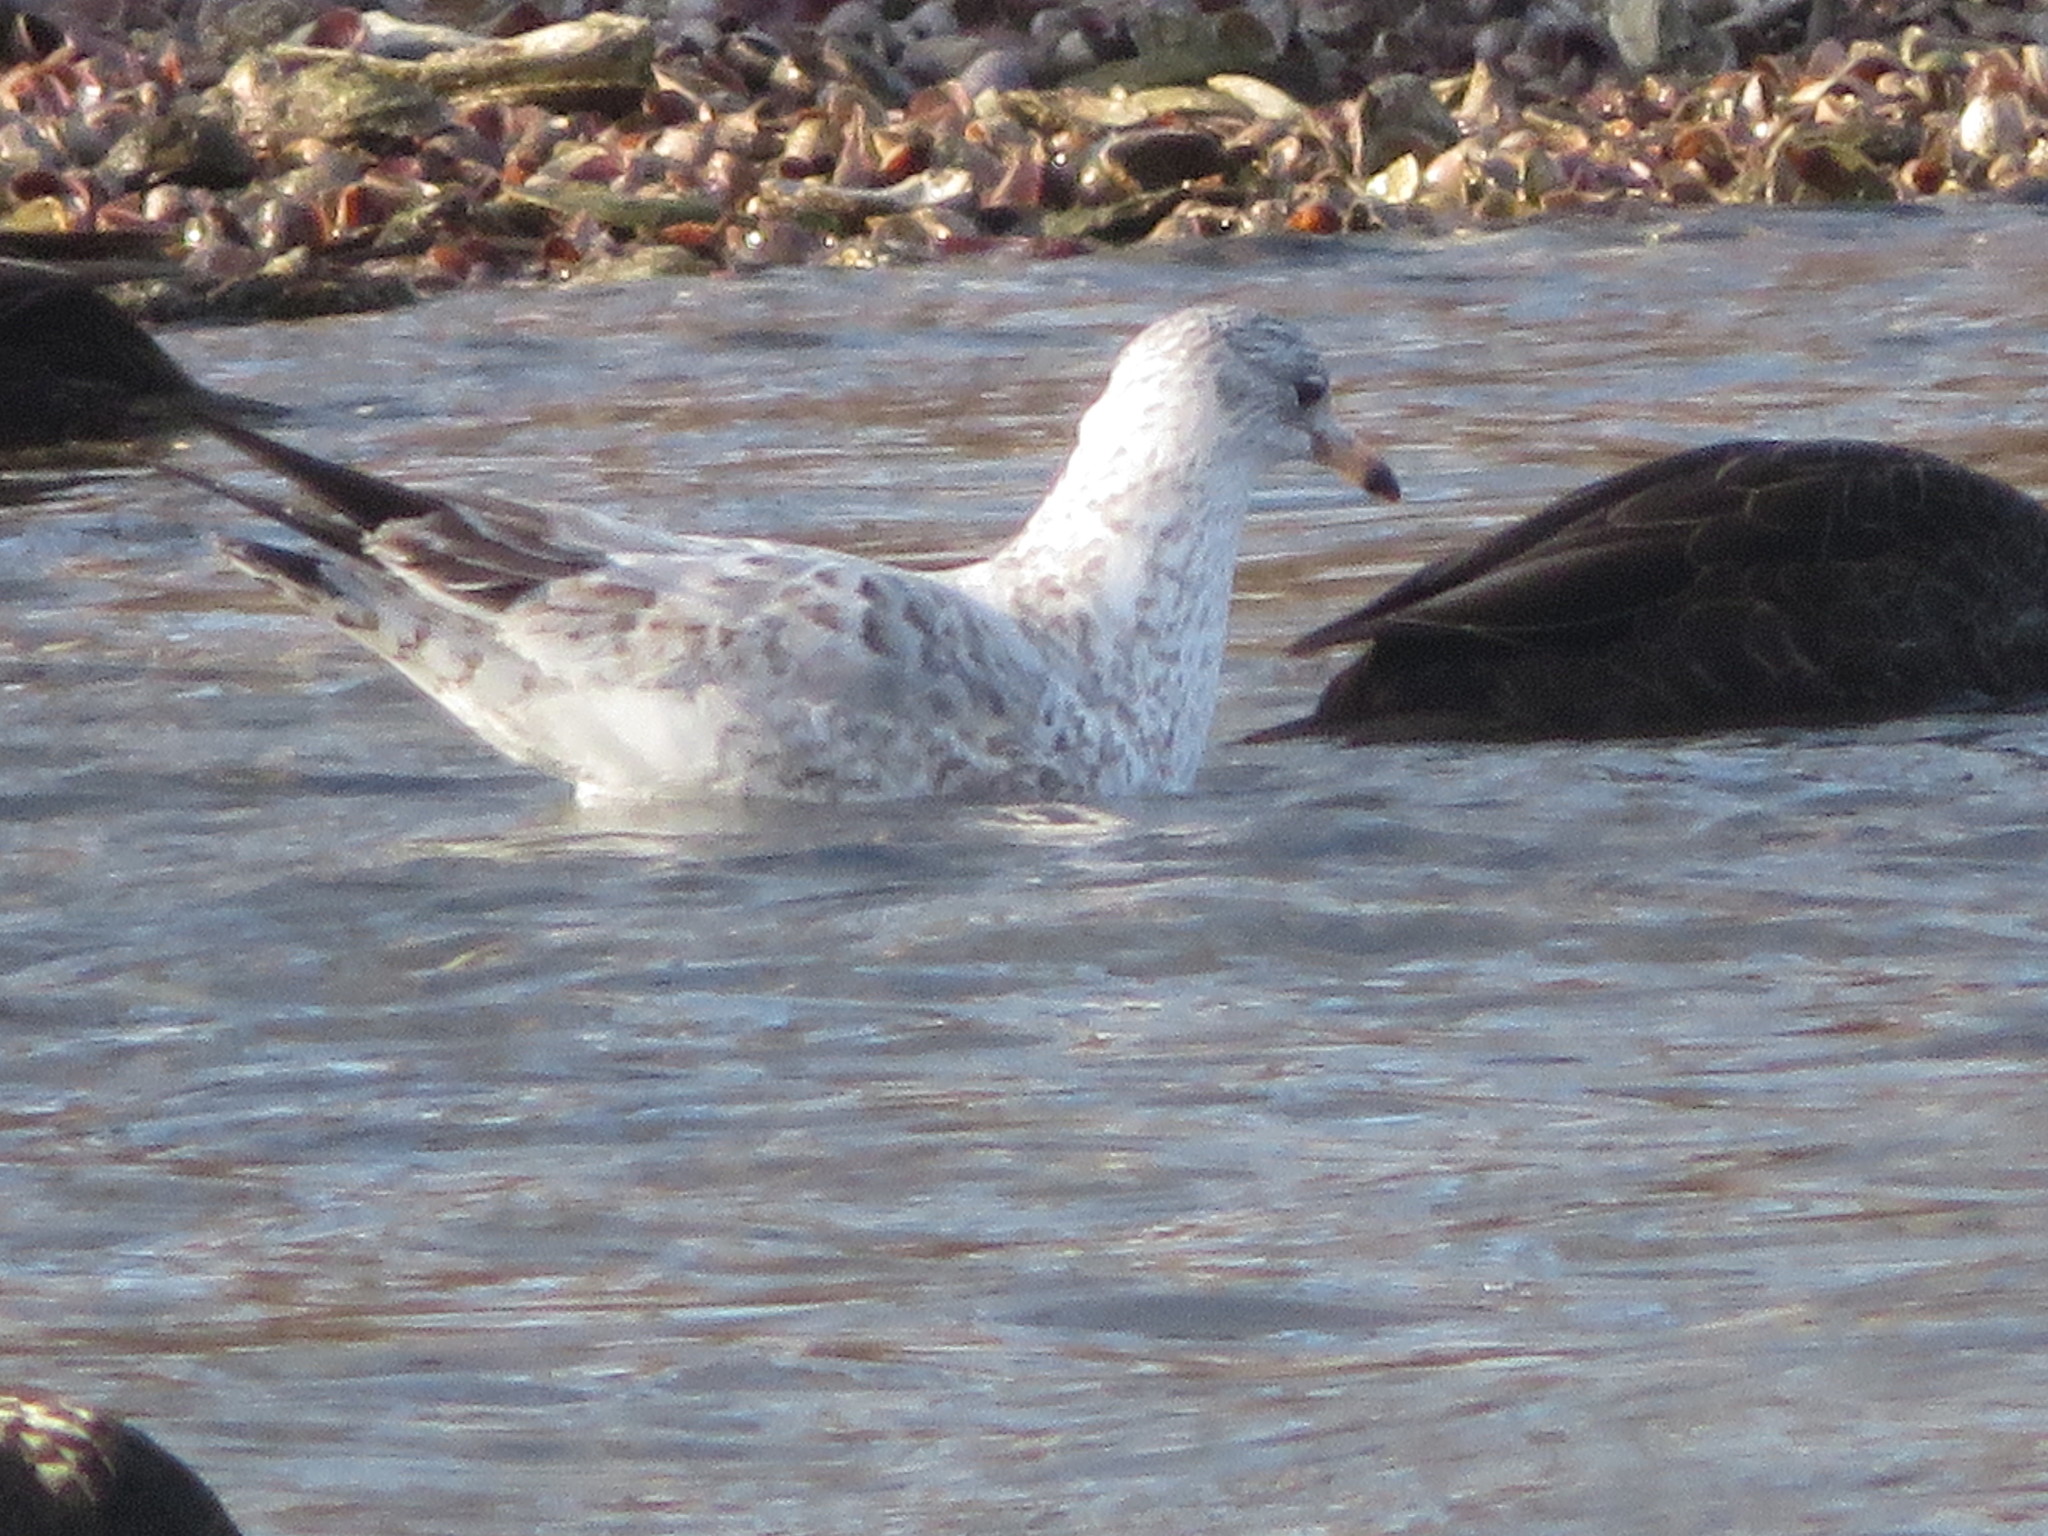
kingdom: Animalia
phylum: Chordata
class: Aves
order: Charadriiformes
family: Laridae
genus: Larus
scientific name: Larus delawarensis
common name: Ring-billed gull
